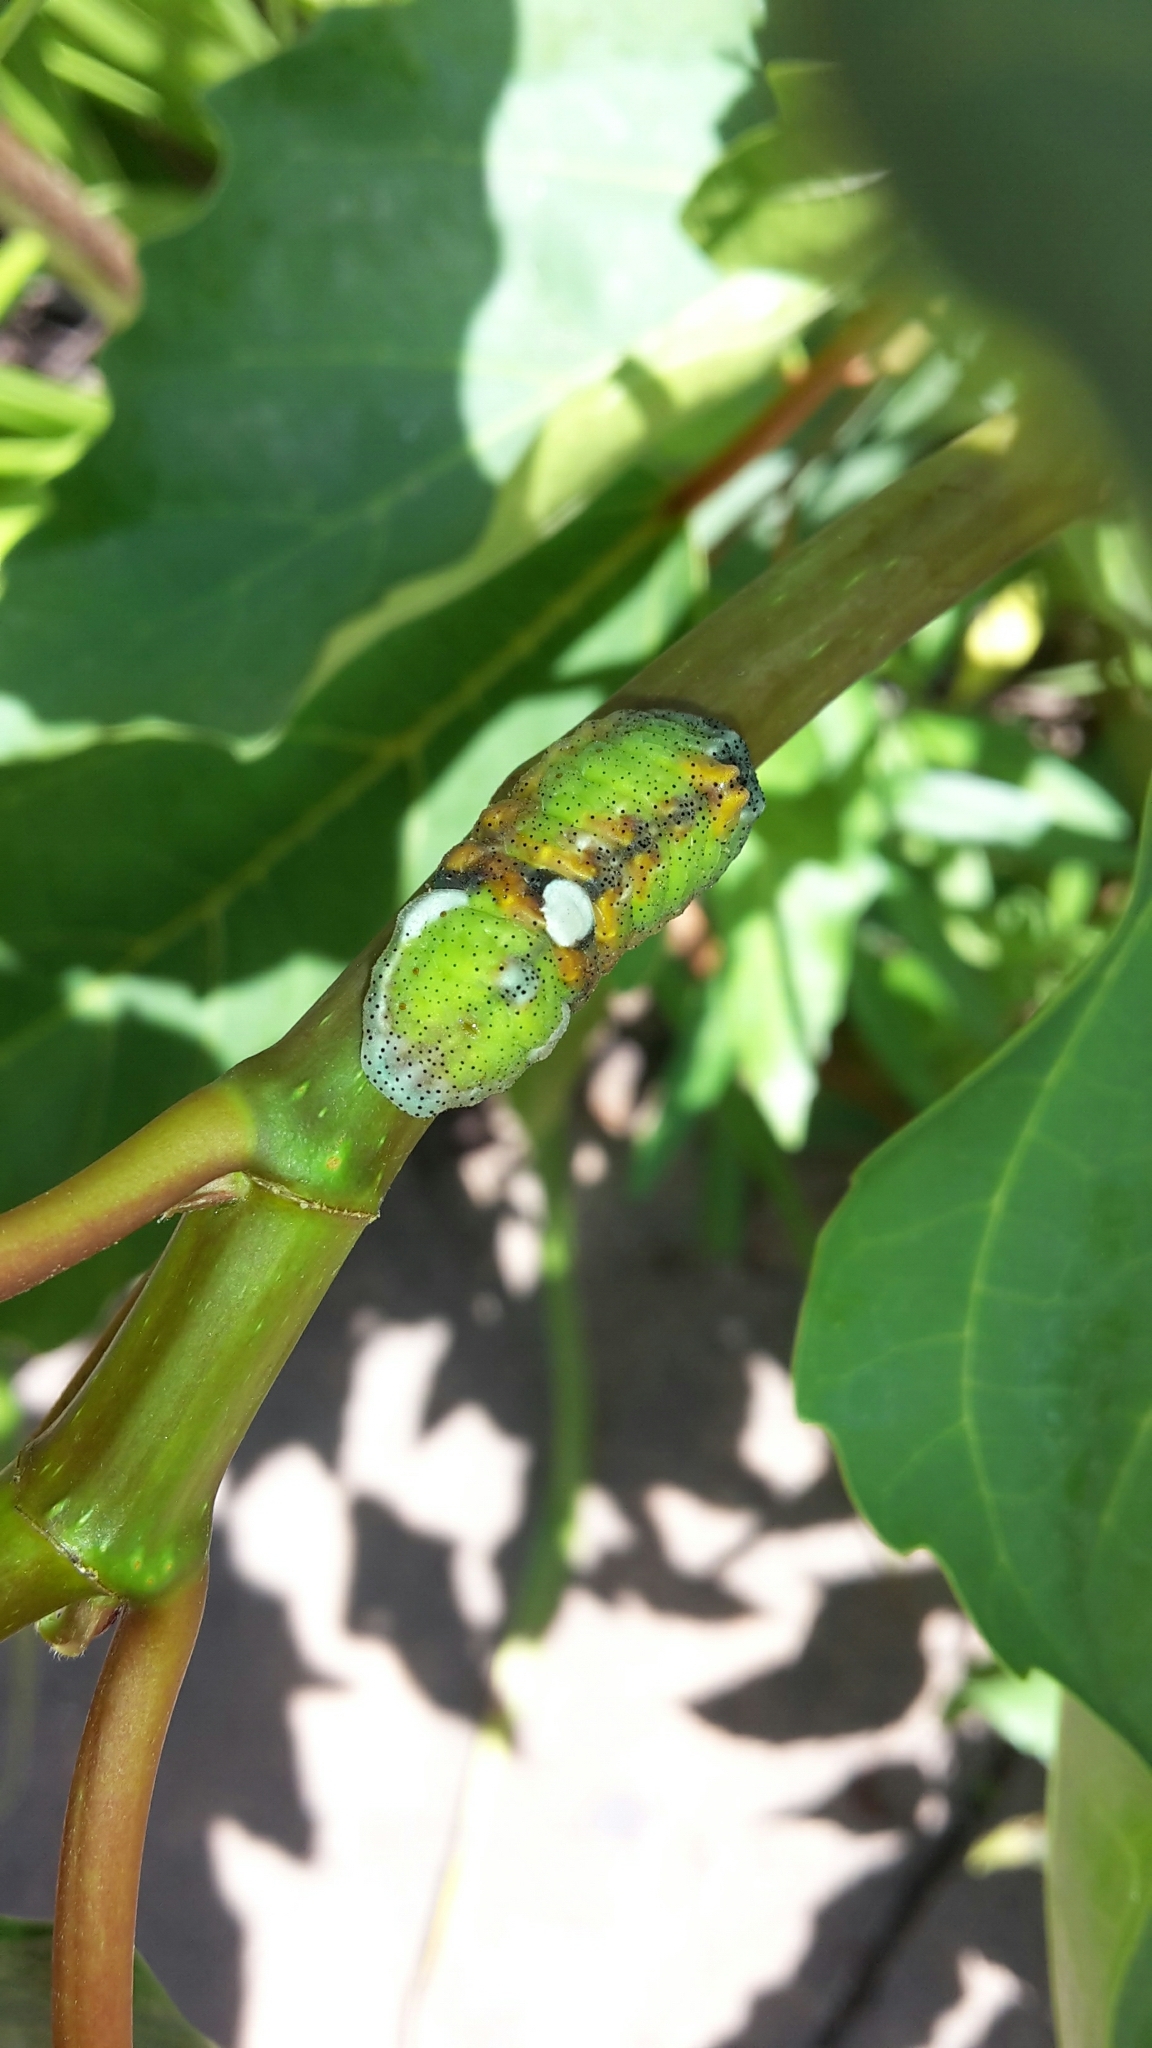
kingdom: Animalia
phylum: Arthropoda
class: Insecta
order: Lepidoptera
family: Lycaenidae
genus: Myrina
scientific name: Myrina silenus
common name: Amber fig-tree blue
